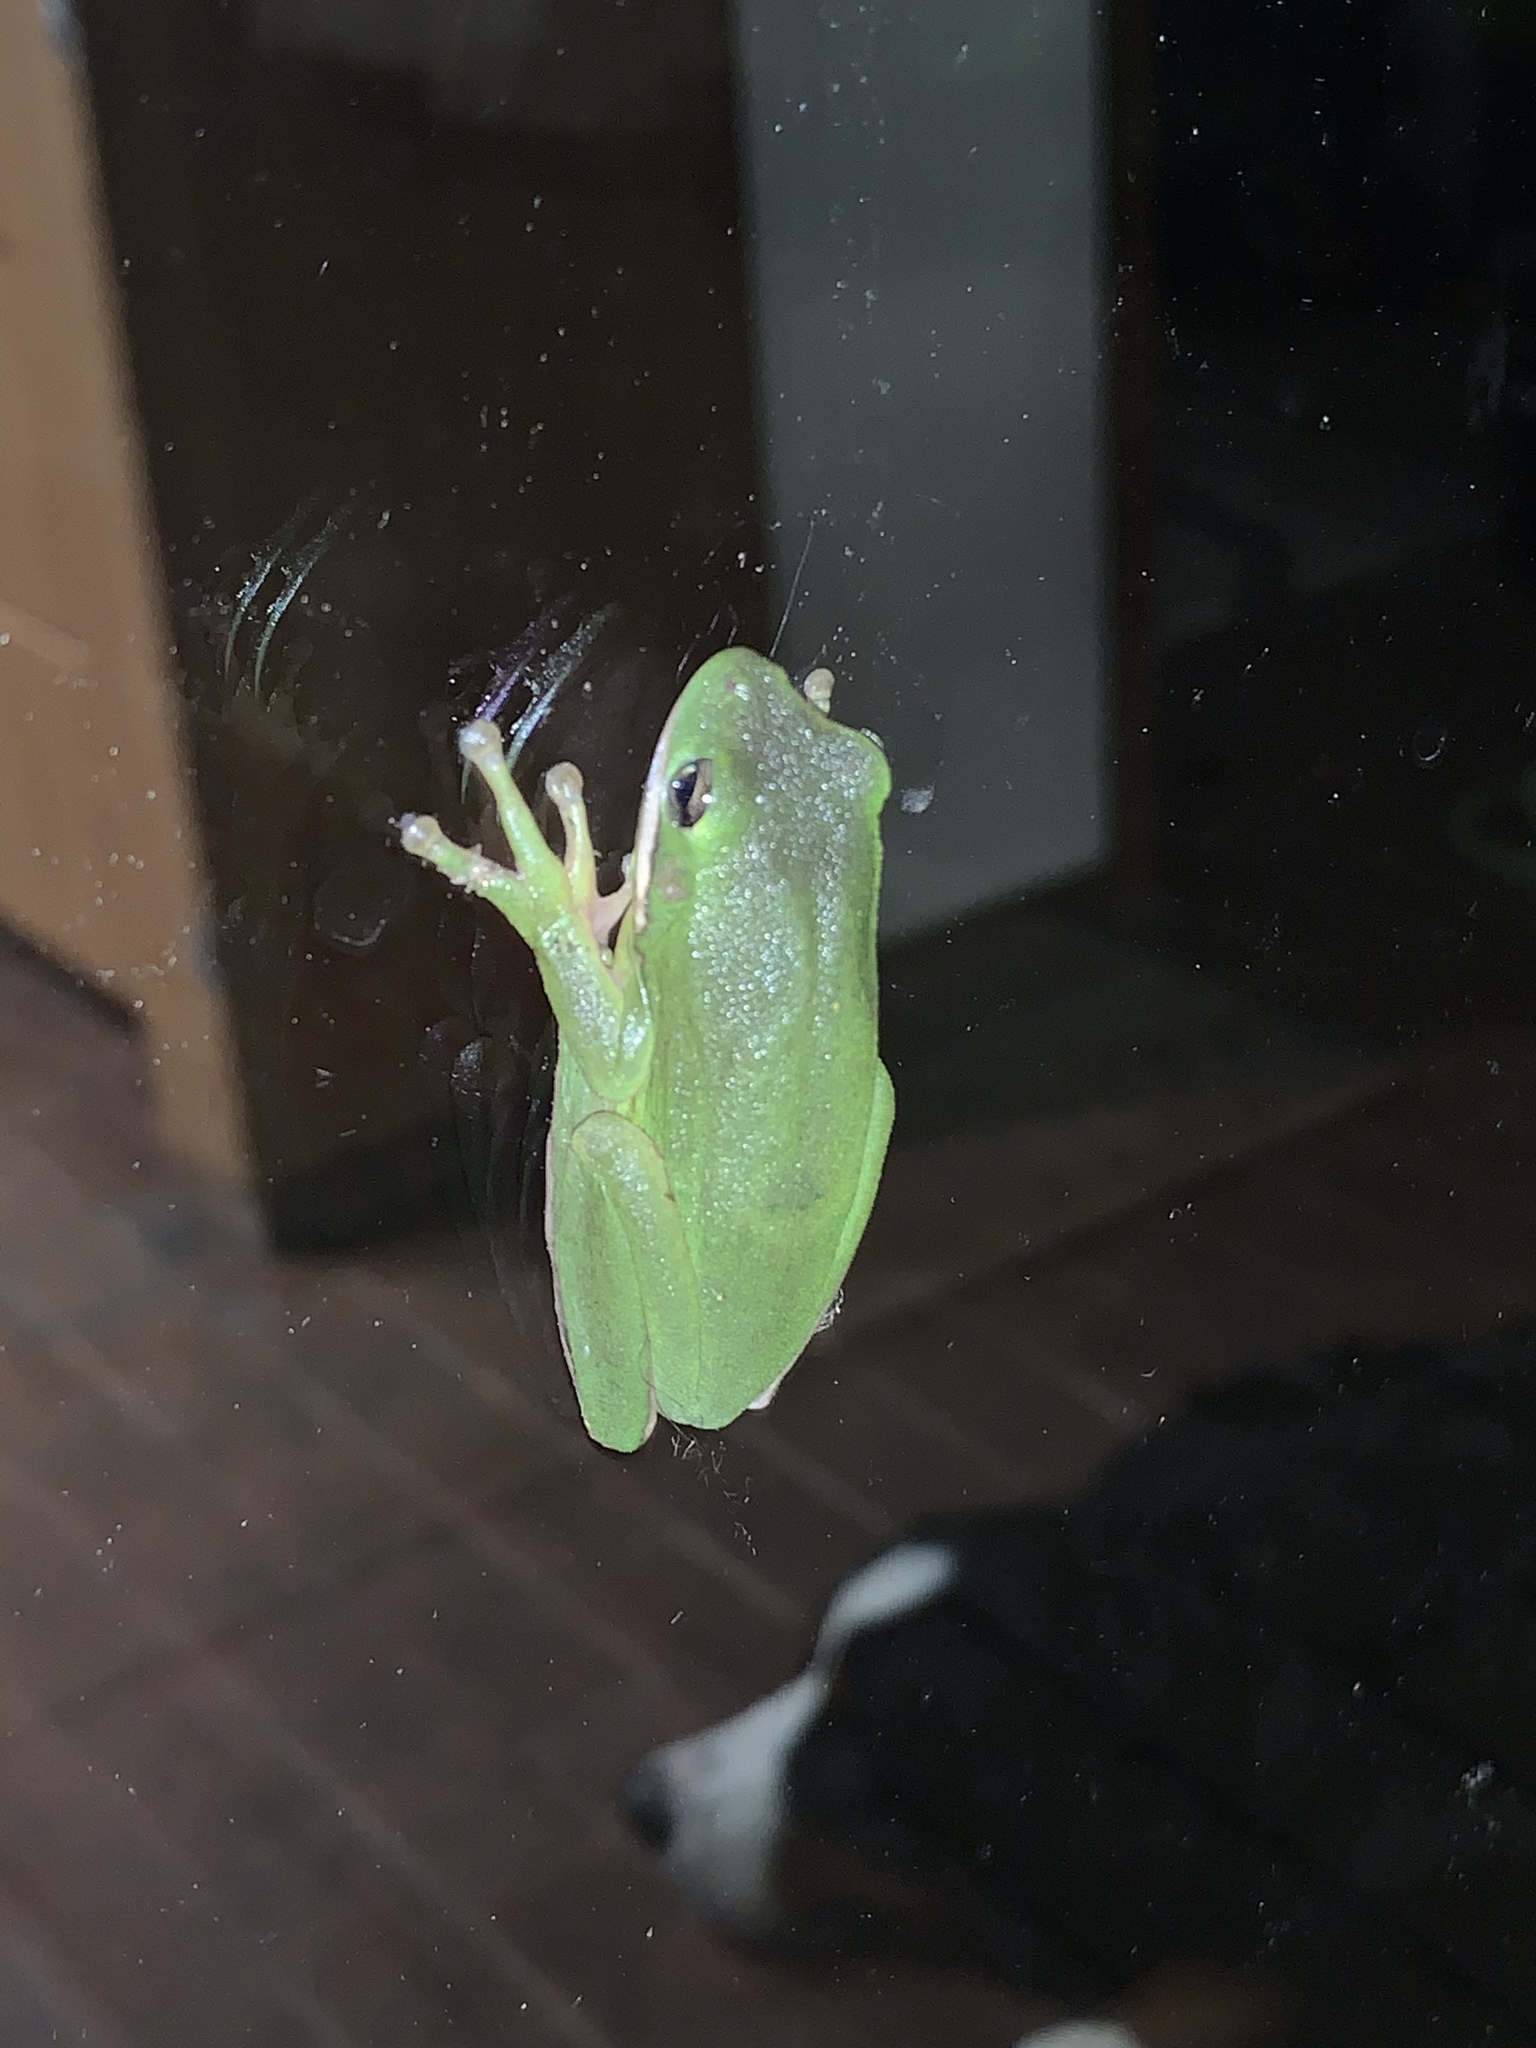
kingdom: Animalia
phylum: Chordata
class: Amphibia
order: Anura
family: Hylidae
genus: Dryophytes
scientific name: Dryophytes cinereus
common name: Green treefrog
